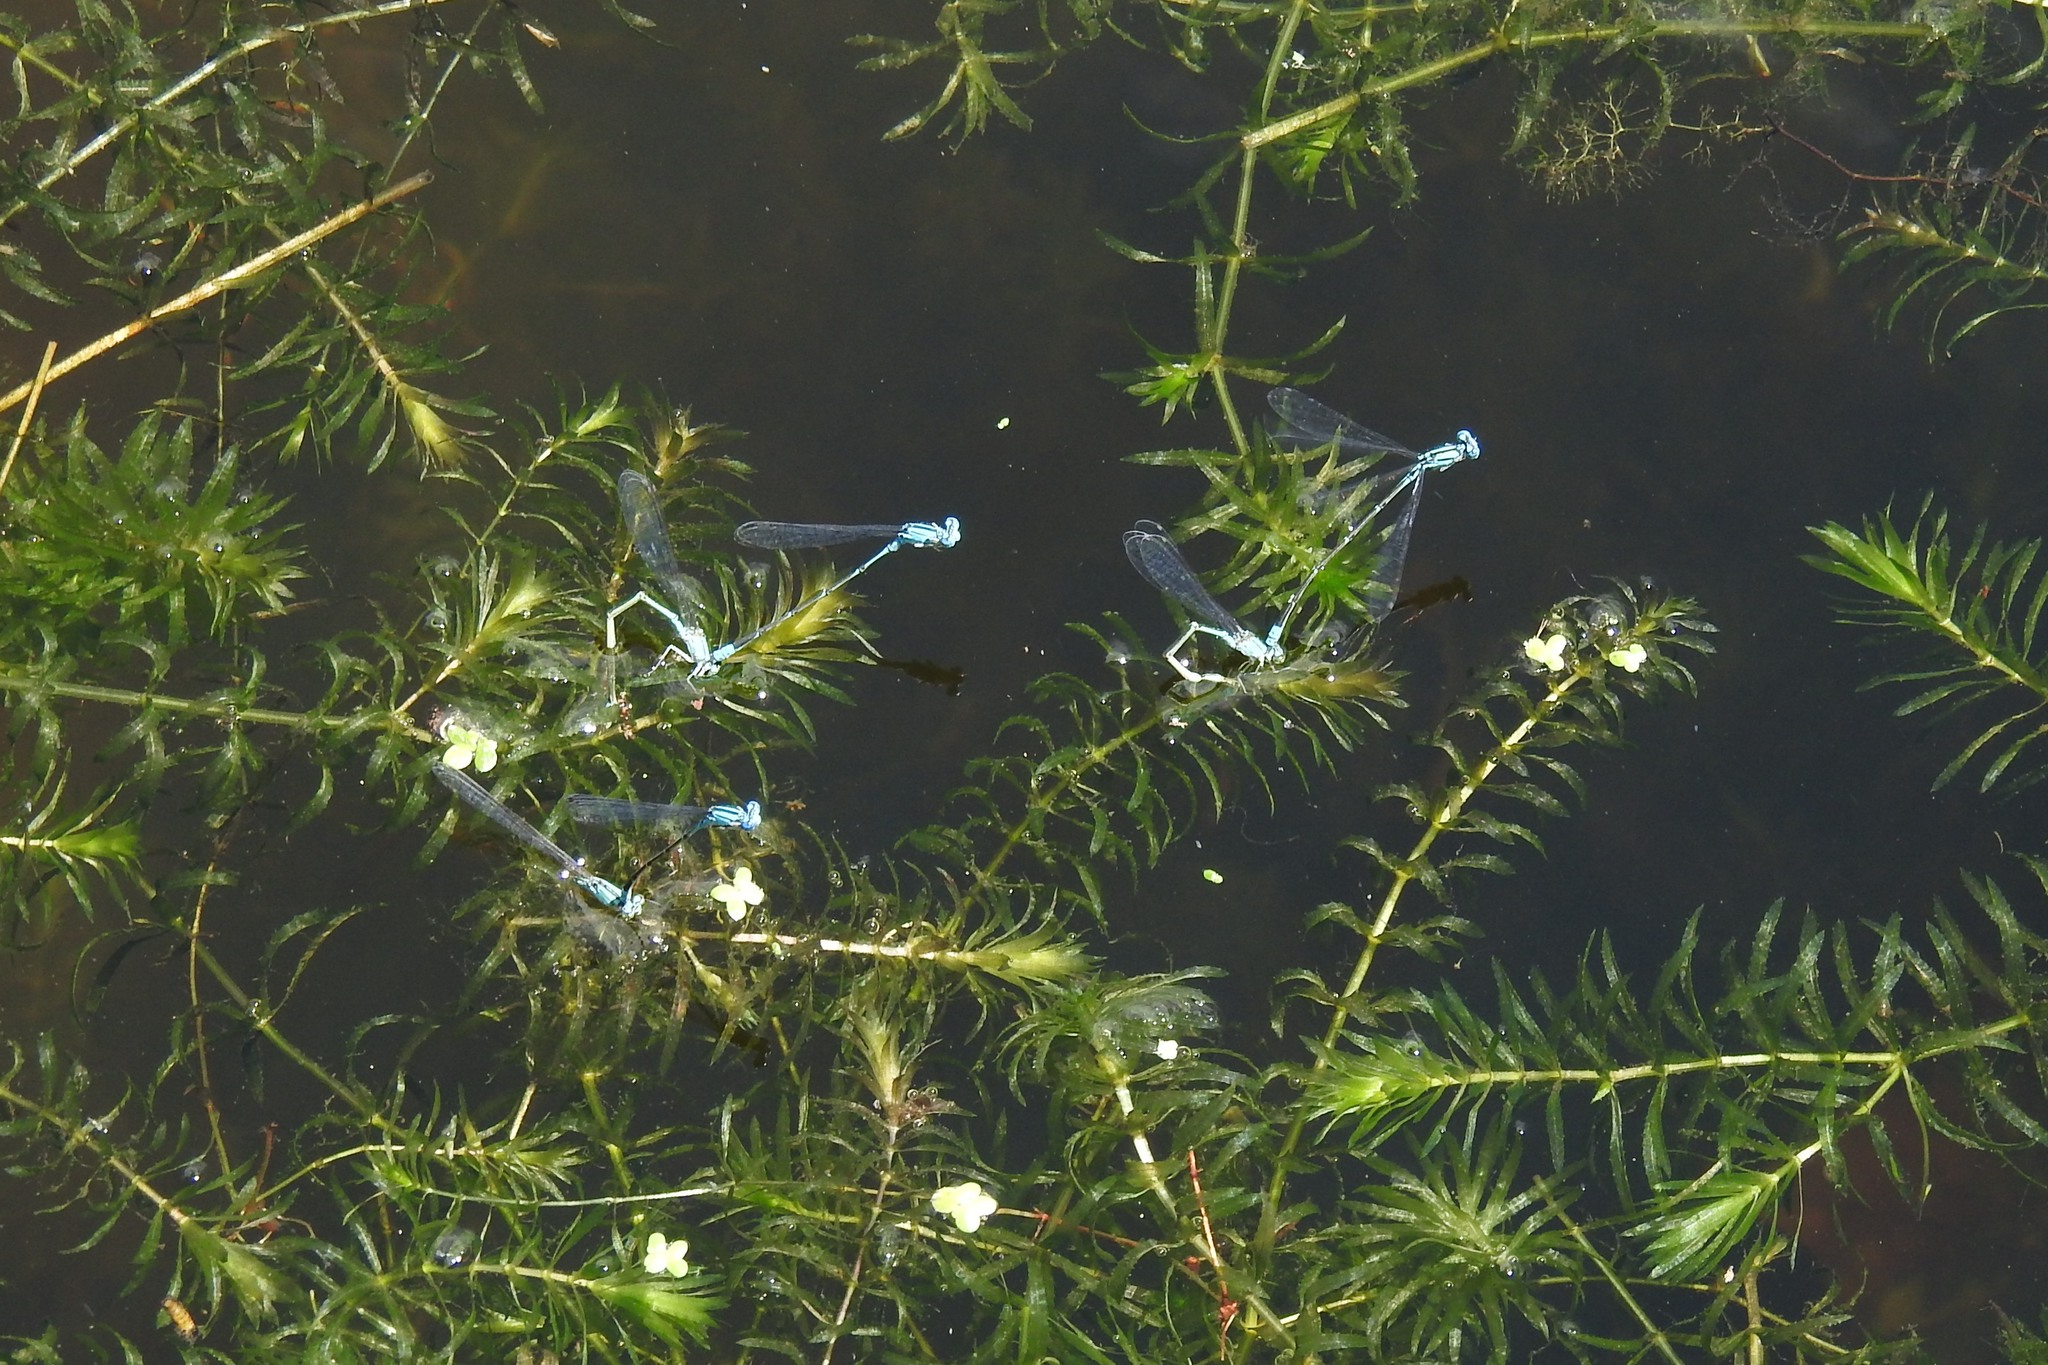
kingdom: Animalia
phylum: Arthropoda
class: Insecta
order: Odonata
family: Coenagrionidae
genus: Enallagma
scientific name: Enallagma traviatum
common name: Slender bluet
